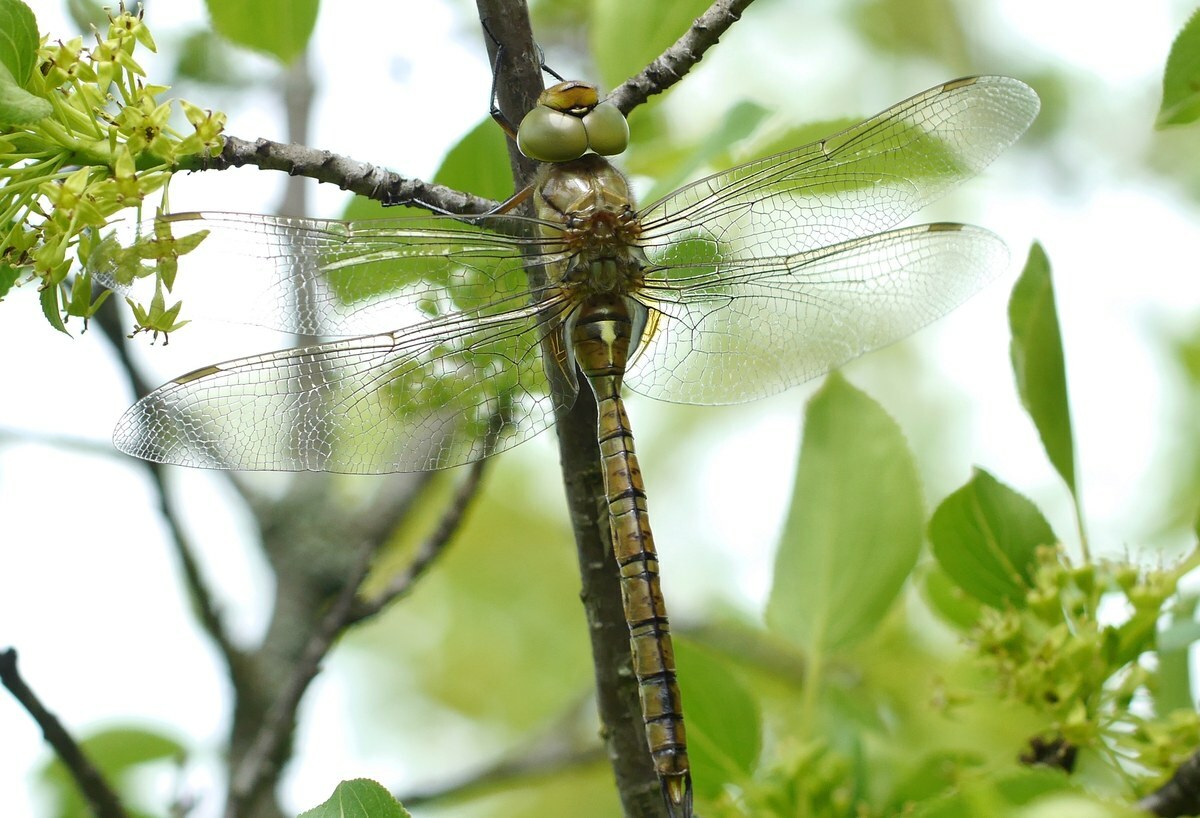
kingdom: Animalia
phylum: Arthropoda
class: Insecta
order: Odonata
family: Aeshnidae
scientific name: Aeshnidae
